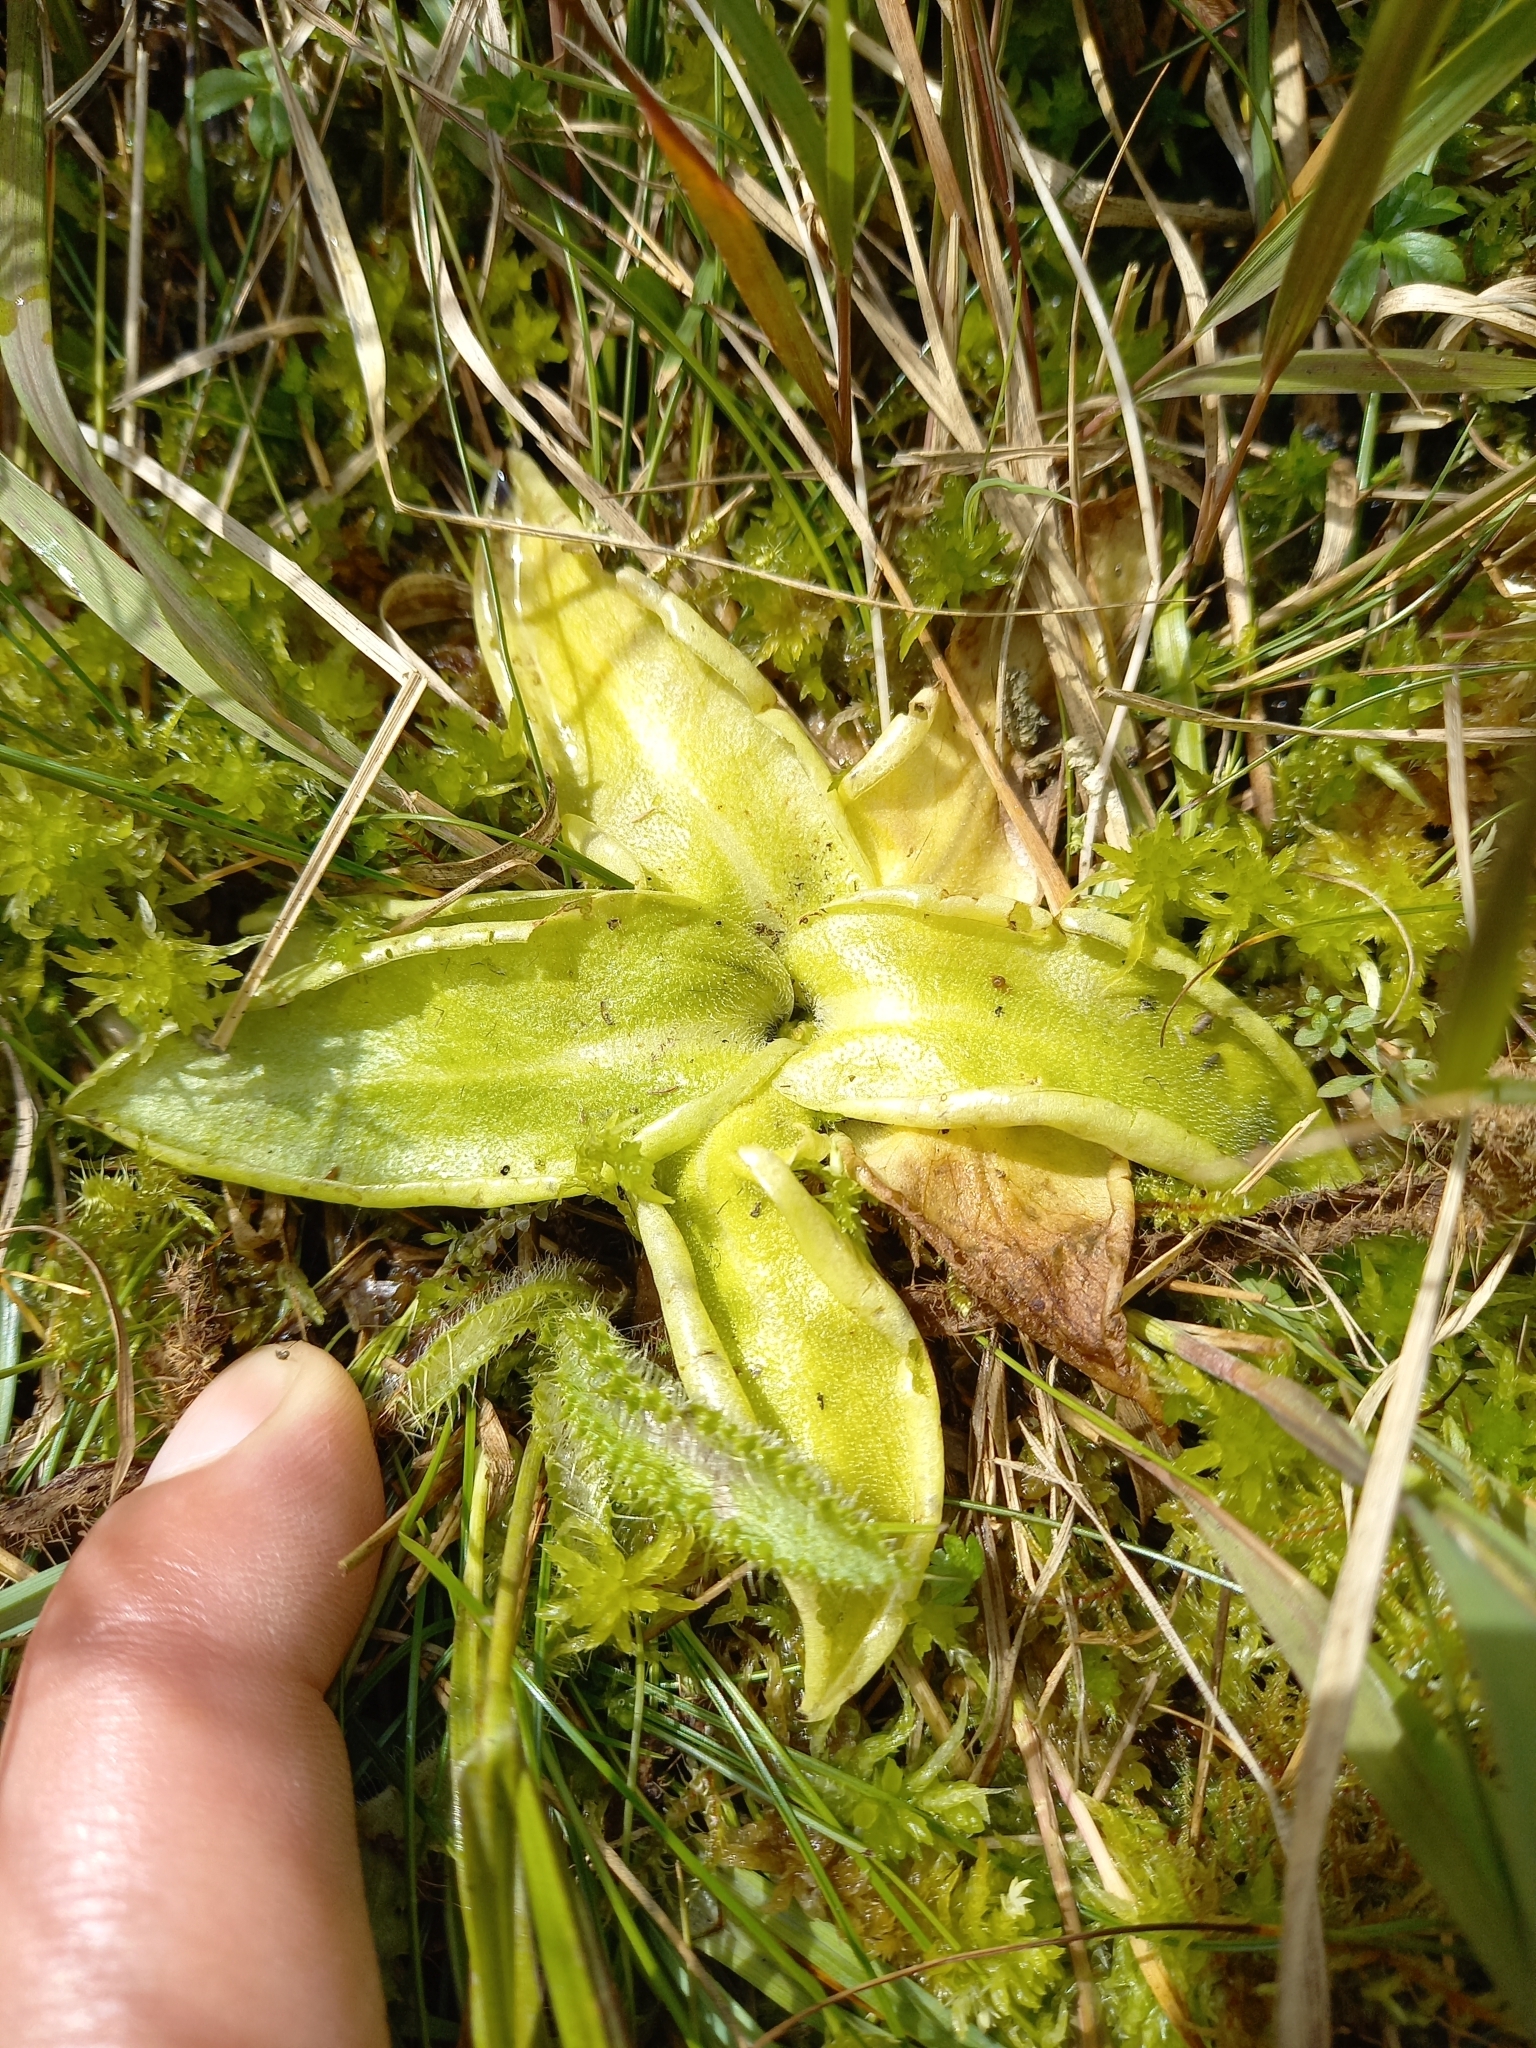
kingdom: Plantae
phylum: Tracheophyta
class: Magnoliopsida
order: Lamiales
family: Lentibulariaceae
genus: Pinguicula
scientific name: Pinguicula vulgaris
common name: Common butterwort
